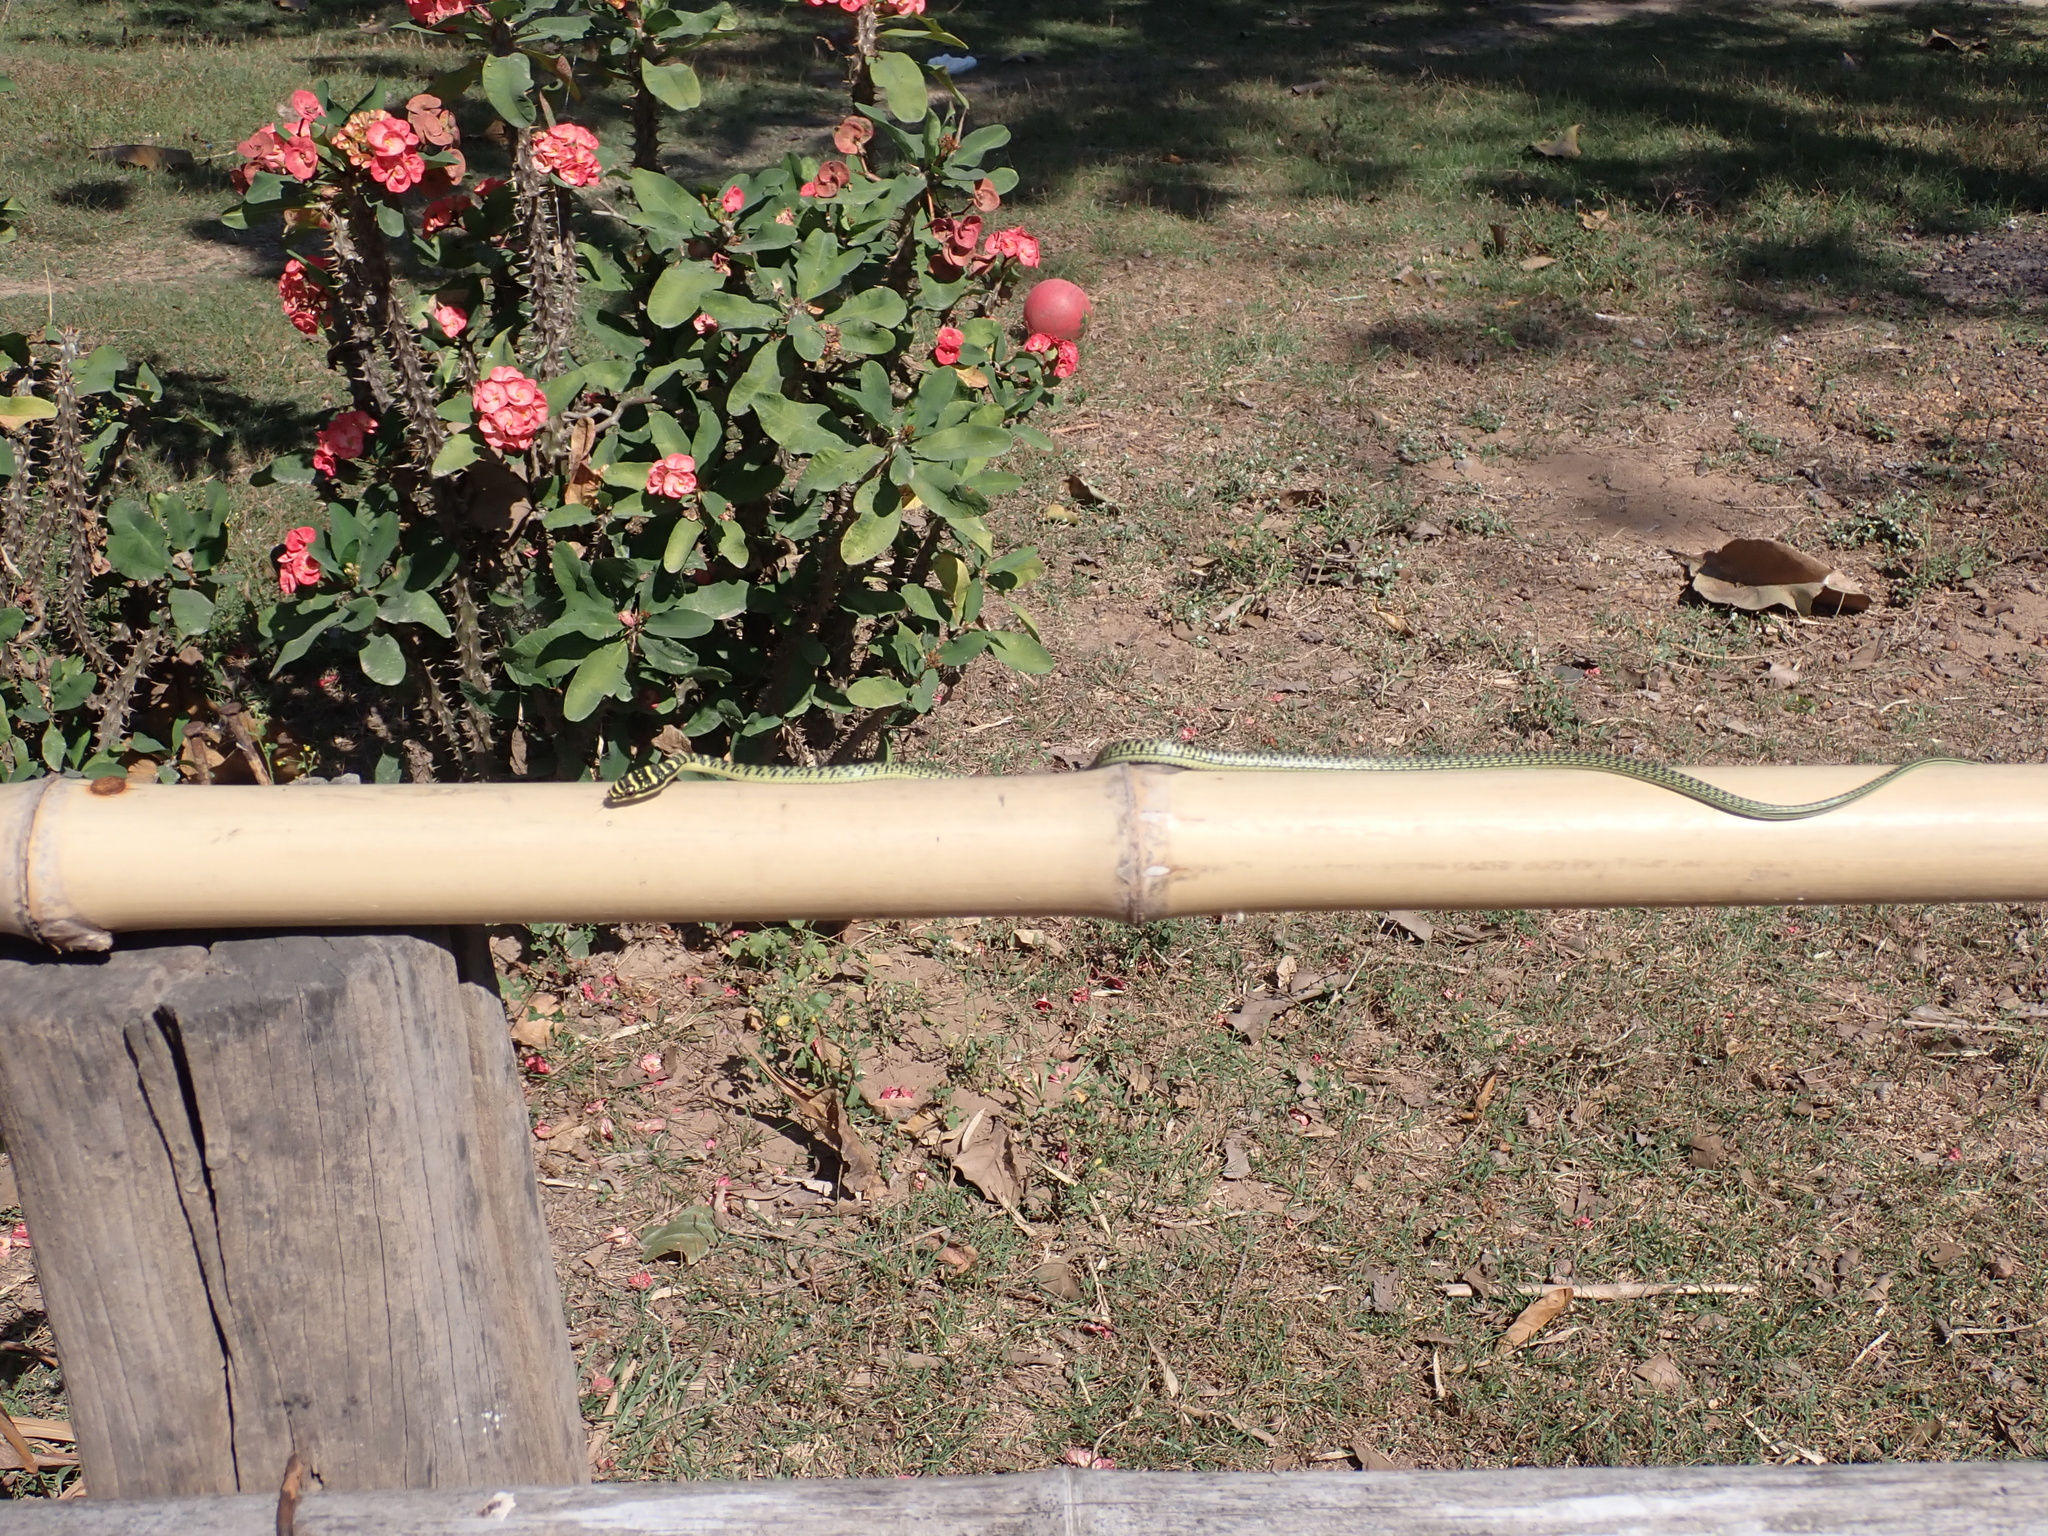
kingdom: Animalia
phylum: Chordata
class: Squamata
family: Colubridae
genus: Chrysopelea
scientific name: Chrysopelea ornata
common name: Golden flying snake
